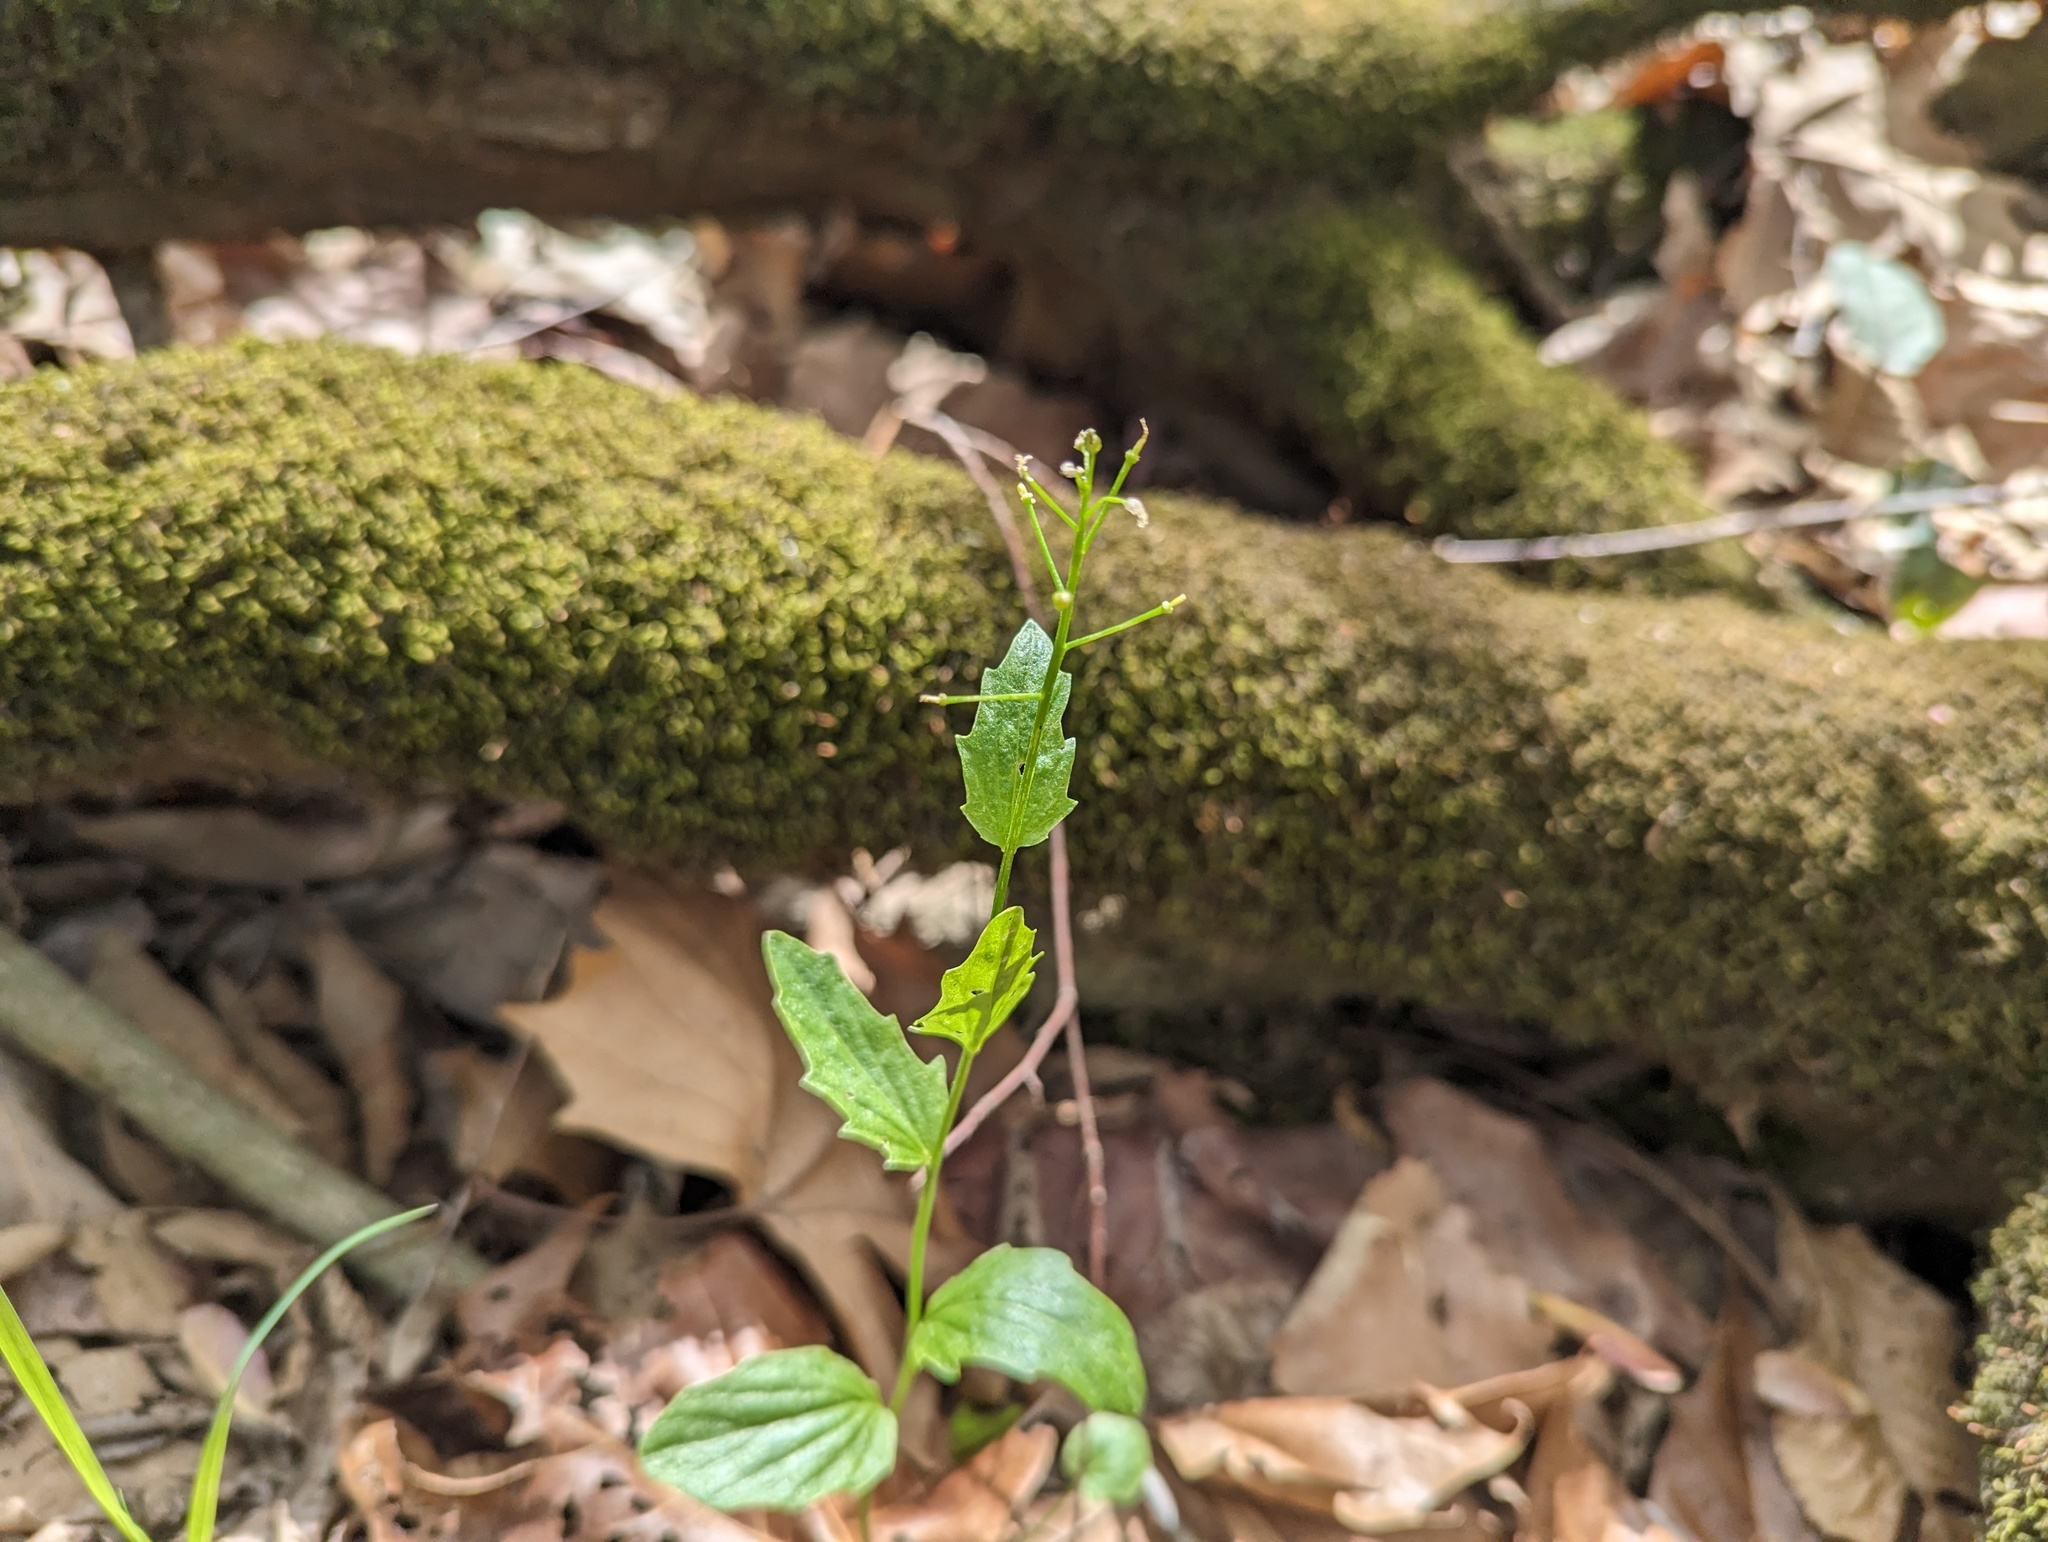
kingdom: Plantae
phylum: Tracheophyta
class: Magnoliopsida
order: Brassicales
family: Brassicaceae
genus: Cardamine
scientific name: Cardamine bulbosa
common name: Spring cress
